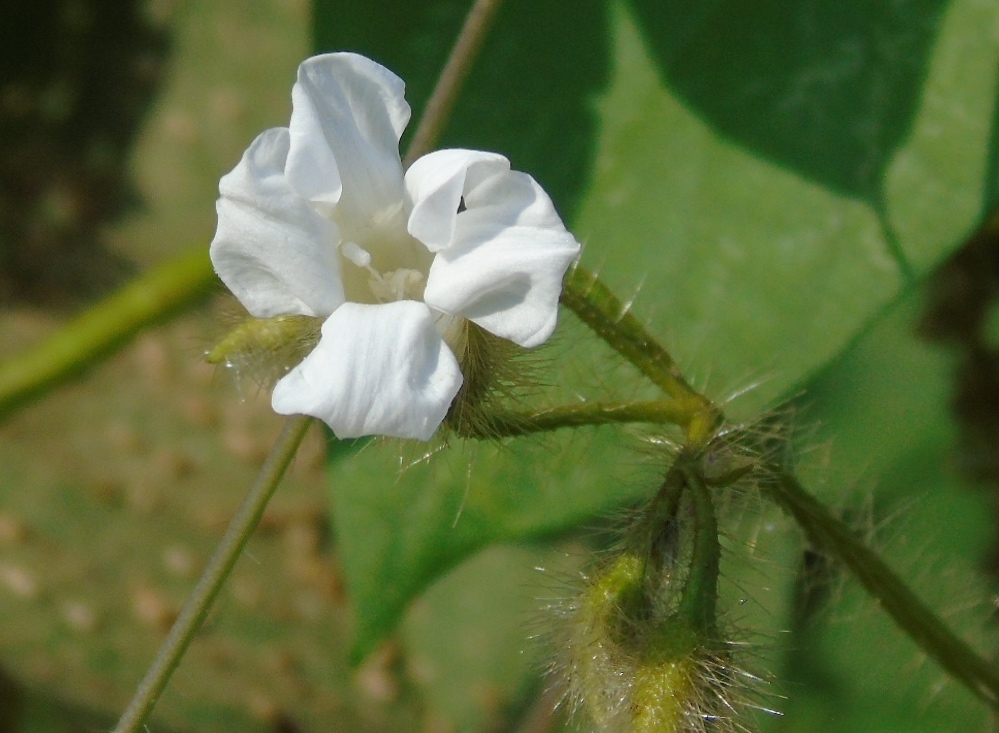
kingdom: Plantae
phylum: Tracheophyta
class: Magnoliopsida
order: Solanales
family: Convolvulaceae
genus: Distimake
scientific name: Distimake aegyptius
